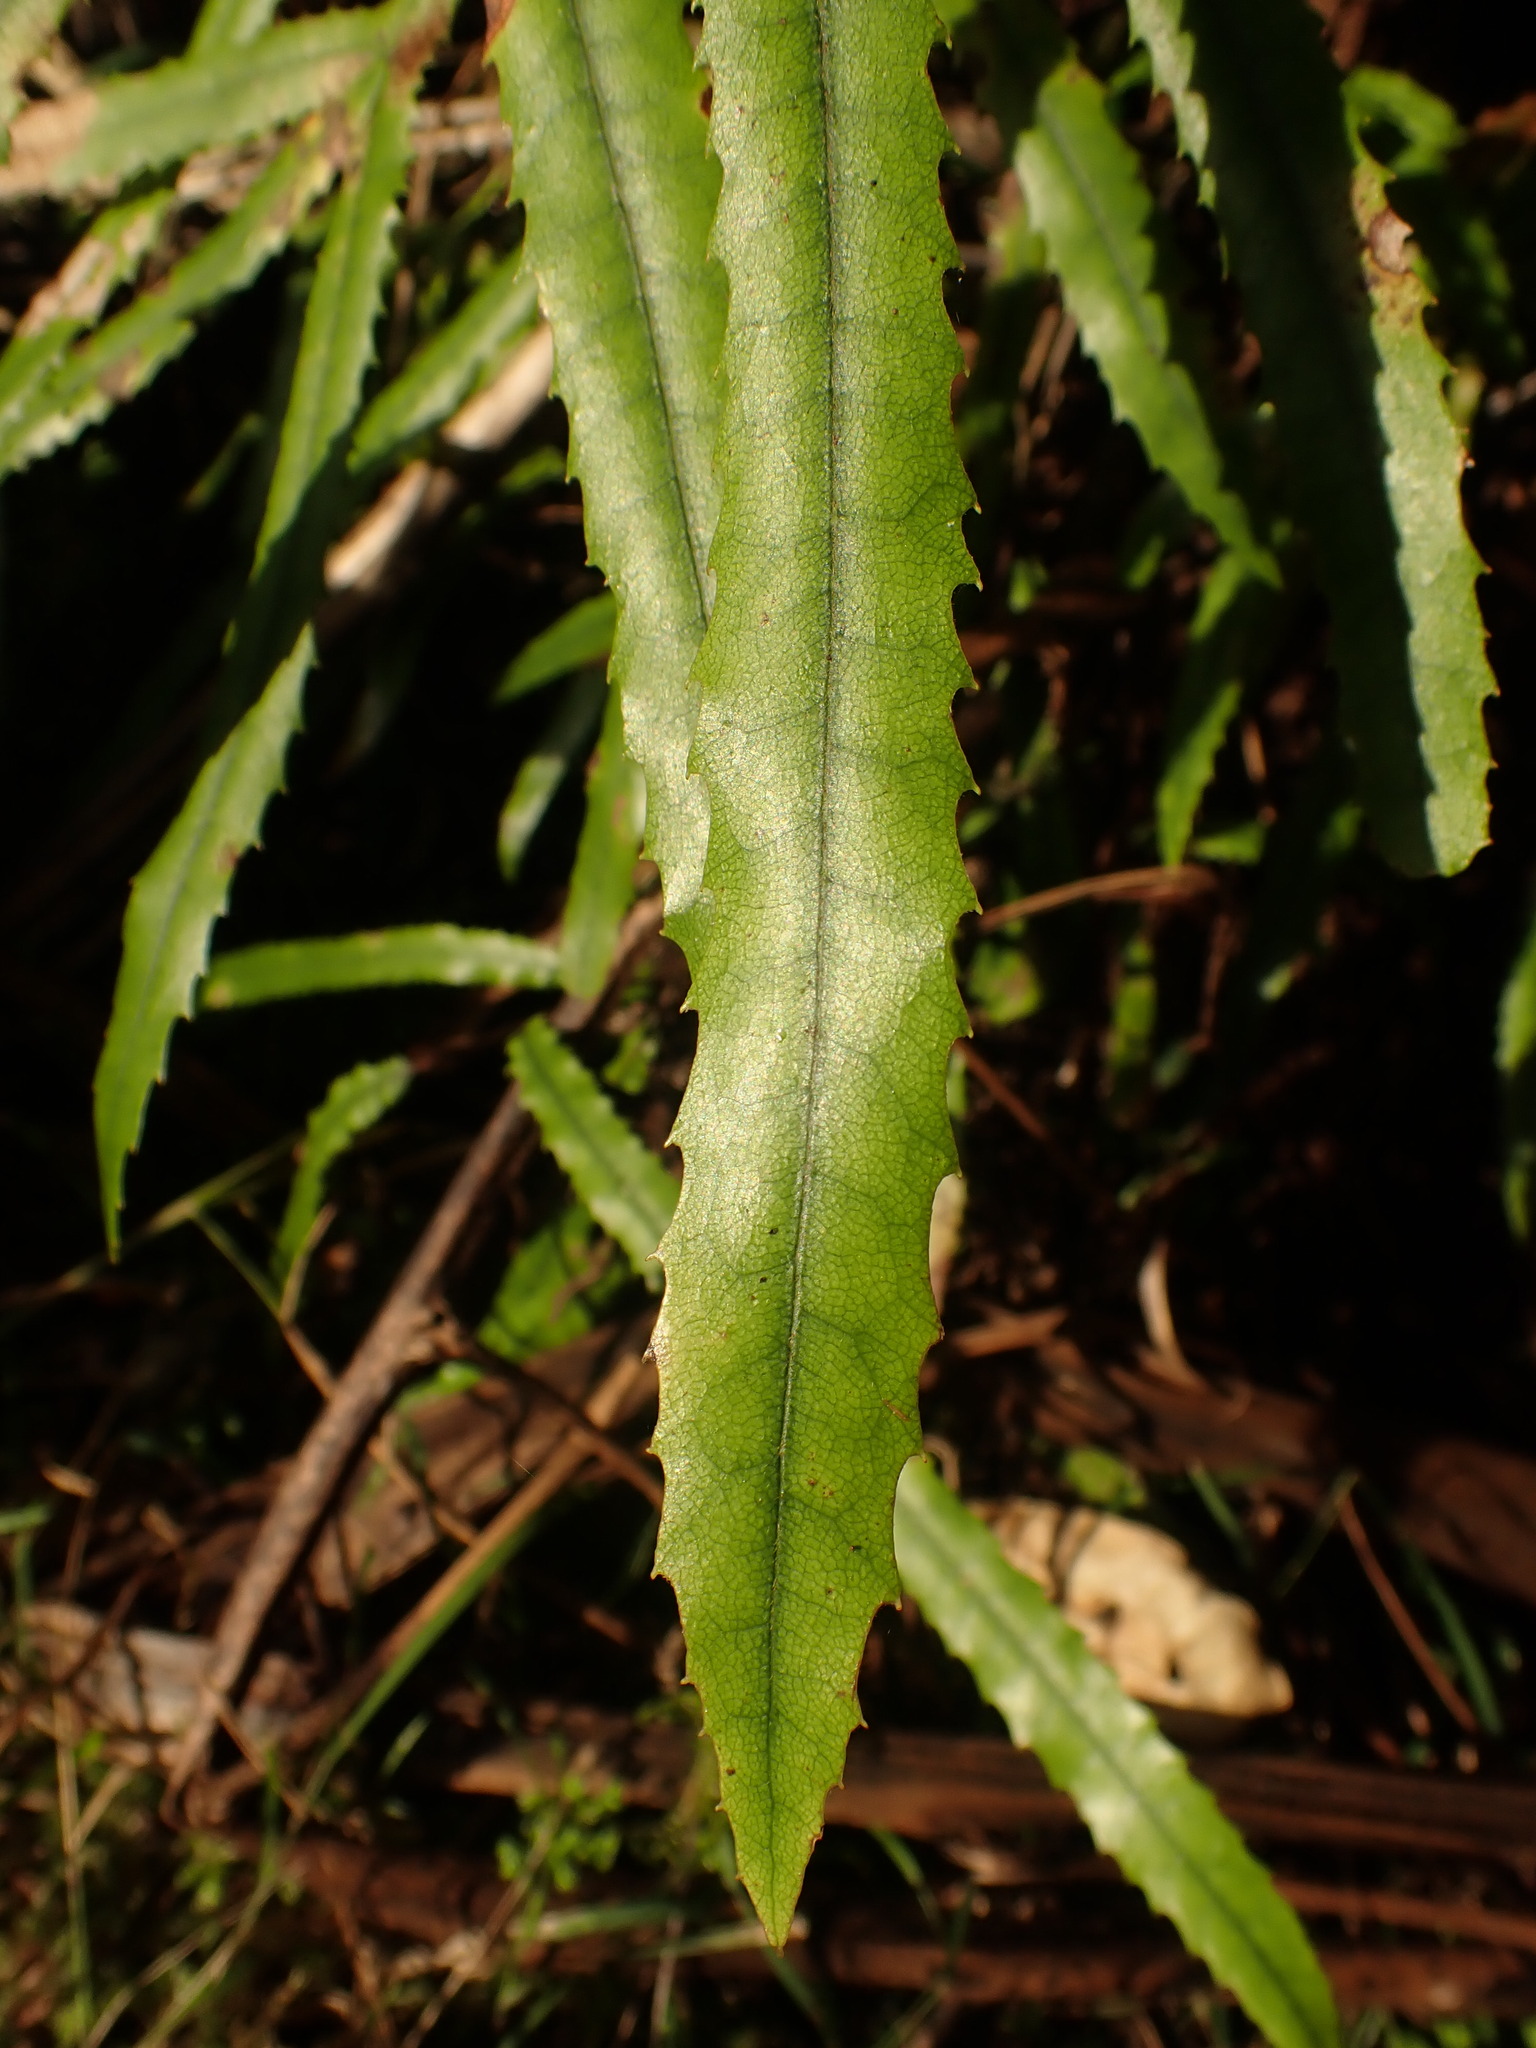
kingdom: Plantae
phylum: Tracheophyta
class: Magnoliopsida
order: Proteales
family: Proteaceae
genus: Knightia
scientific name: Knightia excelsa
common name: New zealand-honeysuckle
